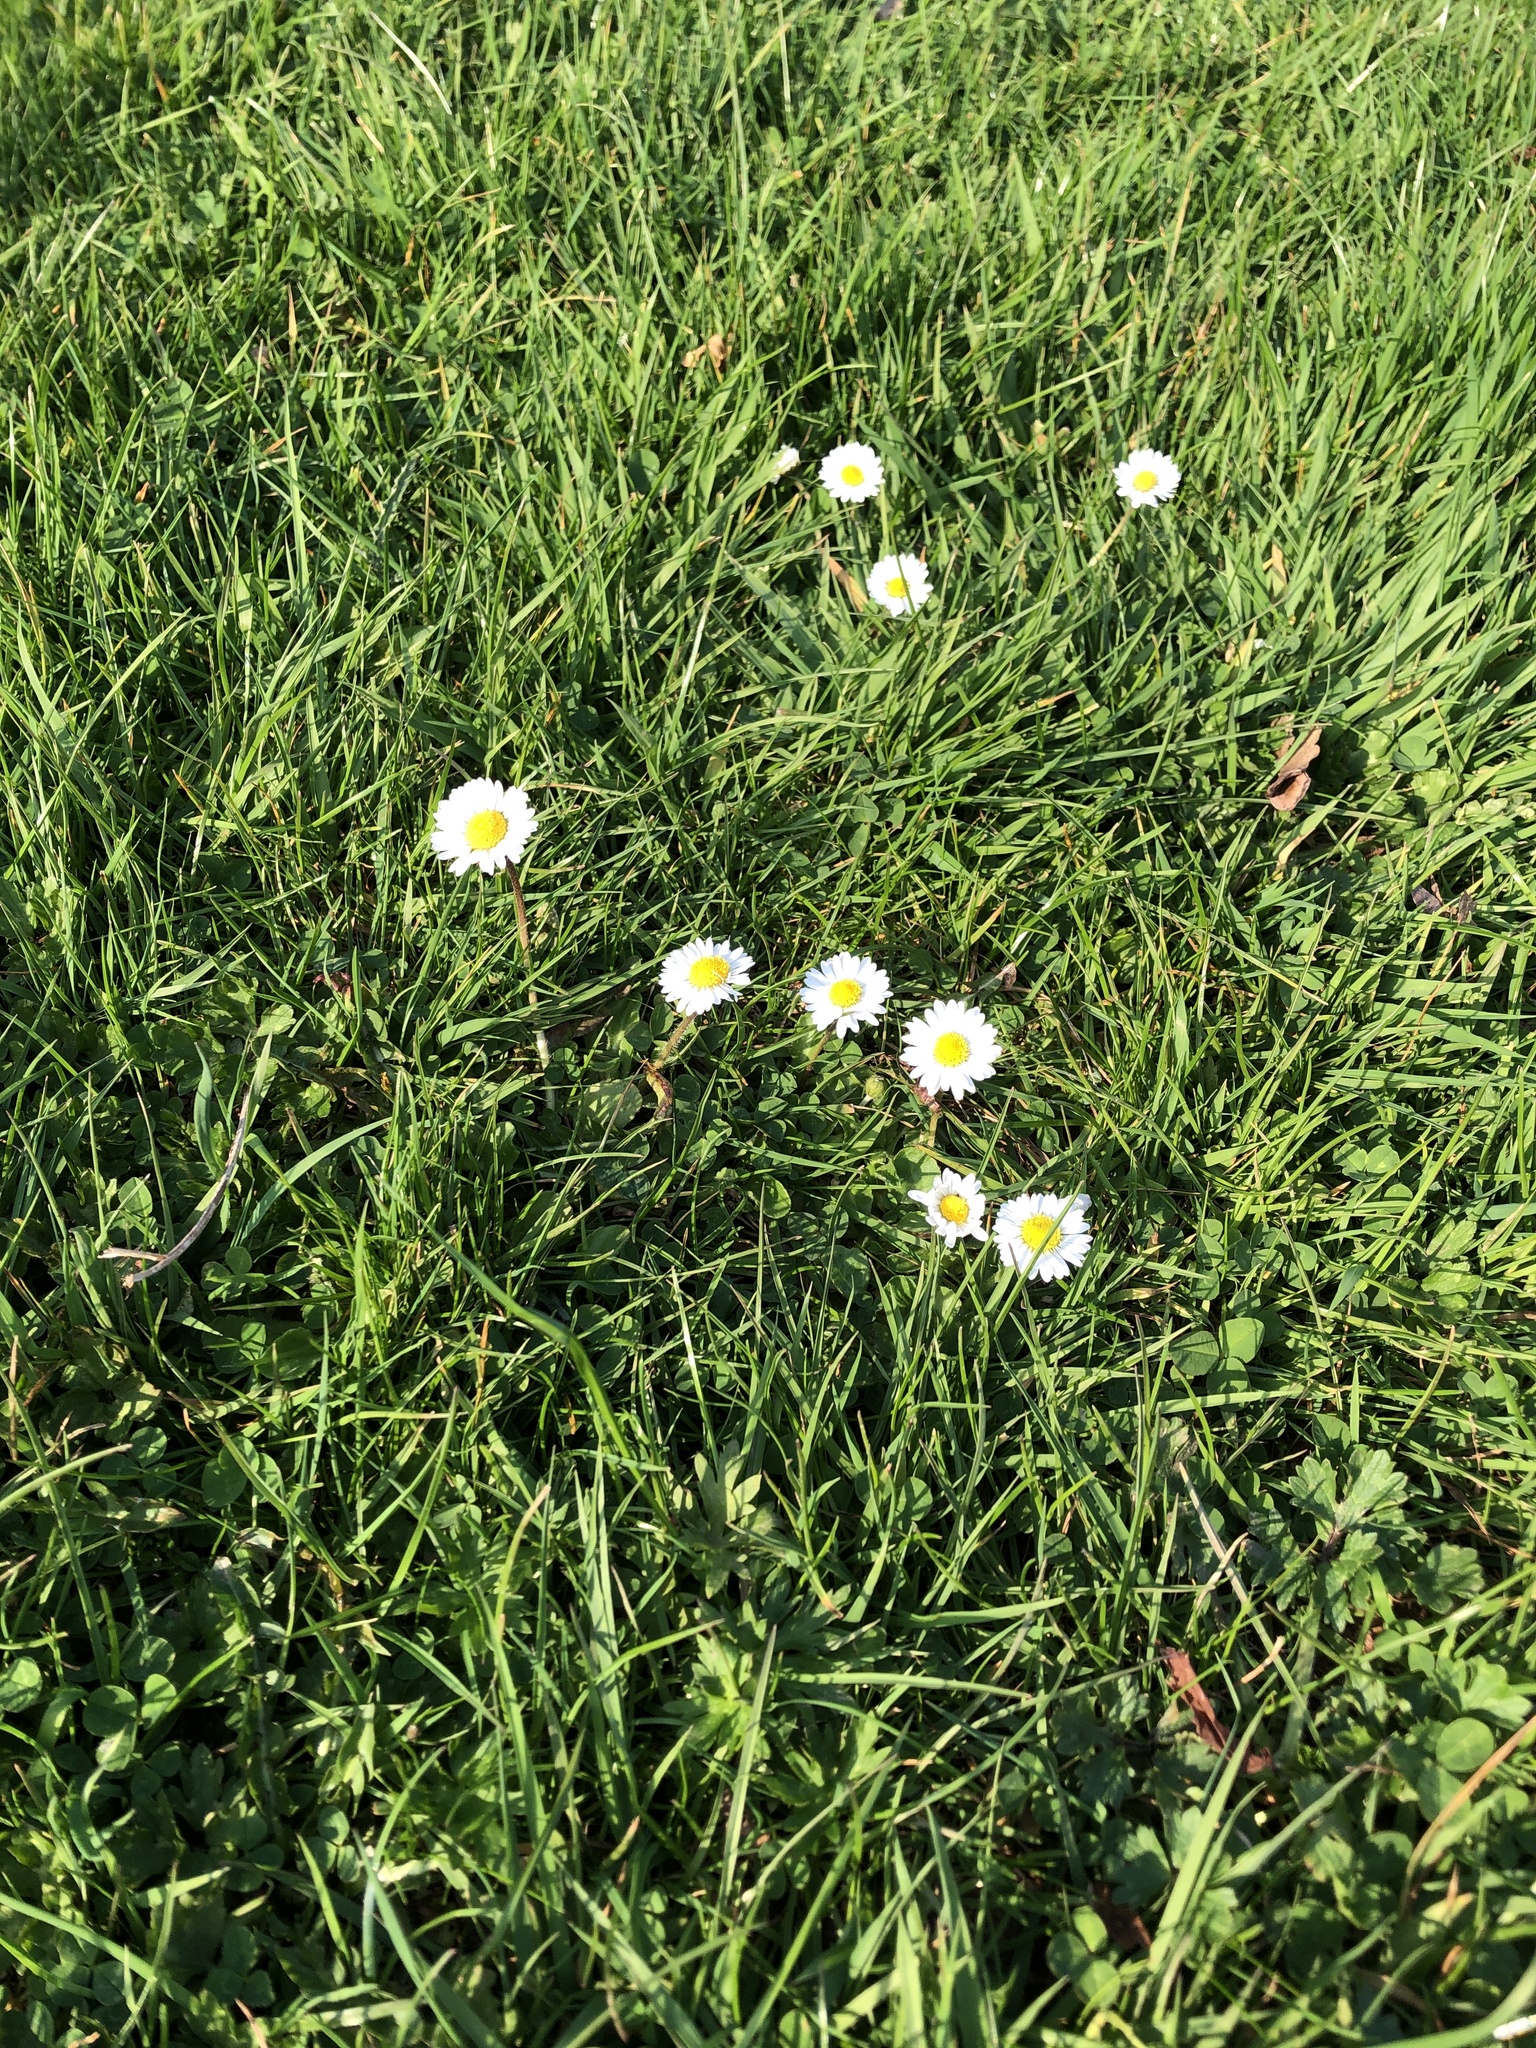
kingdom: Plantae
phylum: Tracheophyta
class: Magnoliopsida
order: Asterales
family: Asteraceae
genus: Bellis
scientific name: Bellis perennis
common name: Lawndaisy
